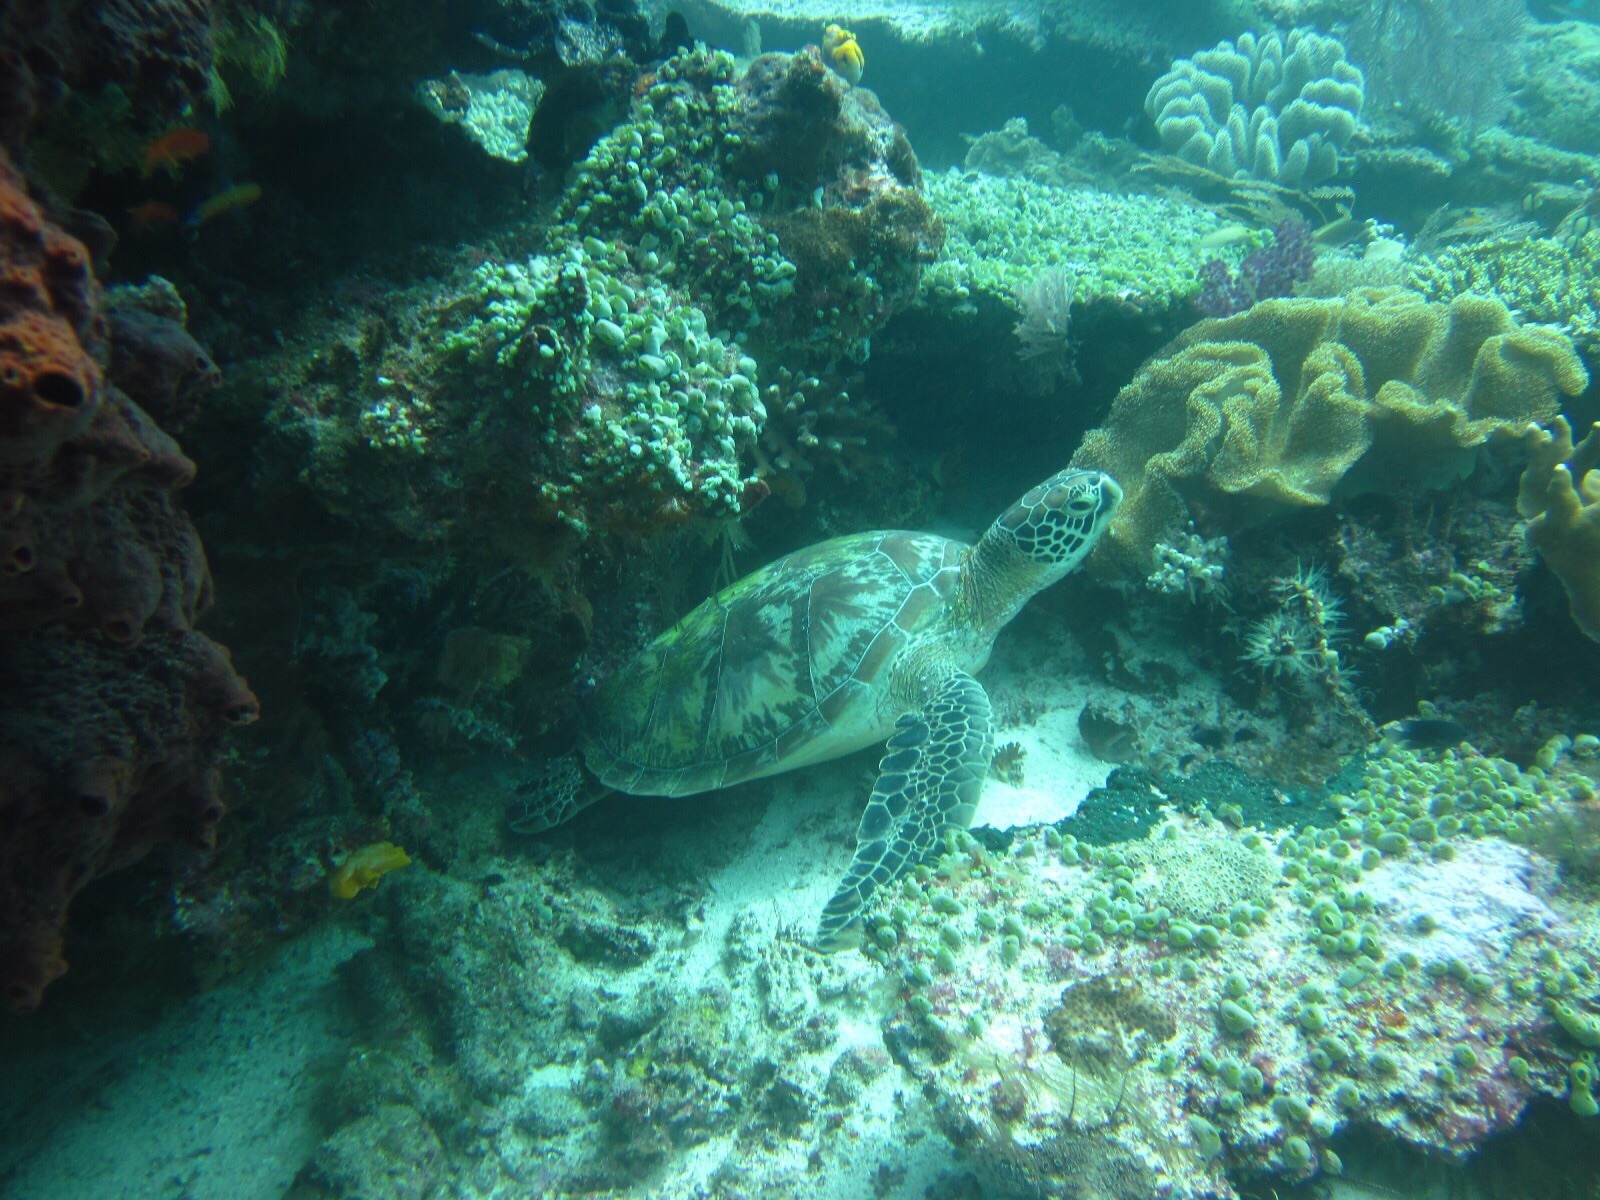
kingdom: Animalia
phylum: Chordata
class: Testudines
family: Cheloniidae
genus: Chelonia
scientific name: Chelonia mydas
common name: Green turtle
